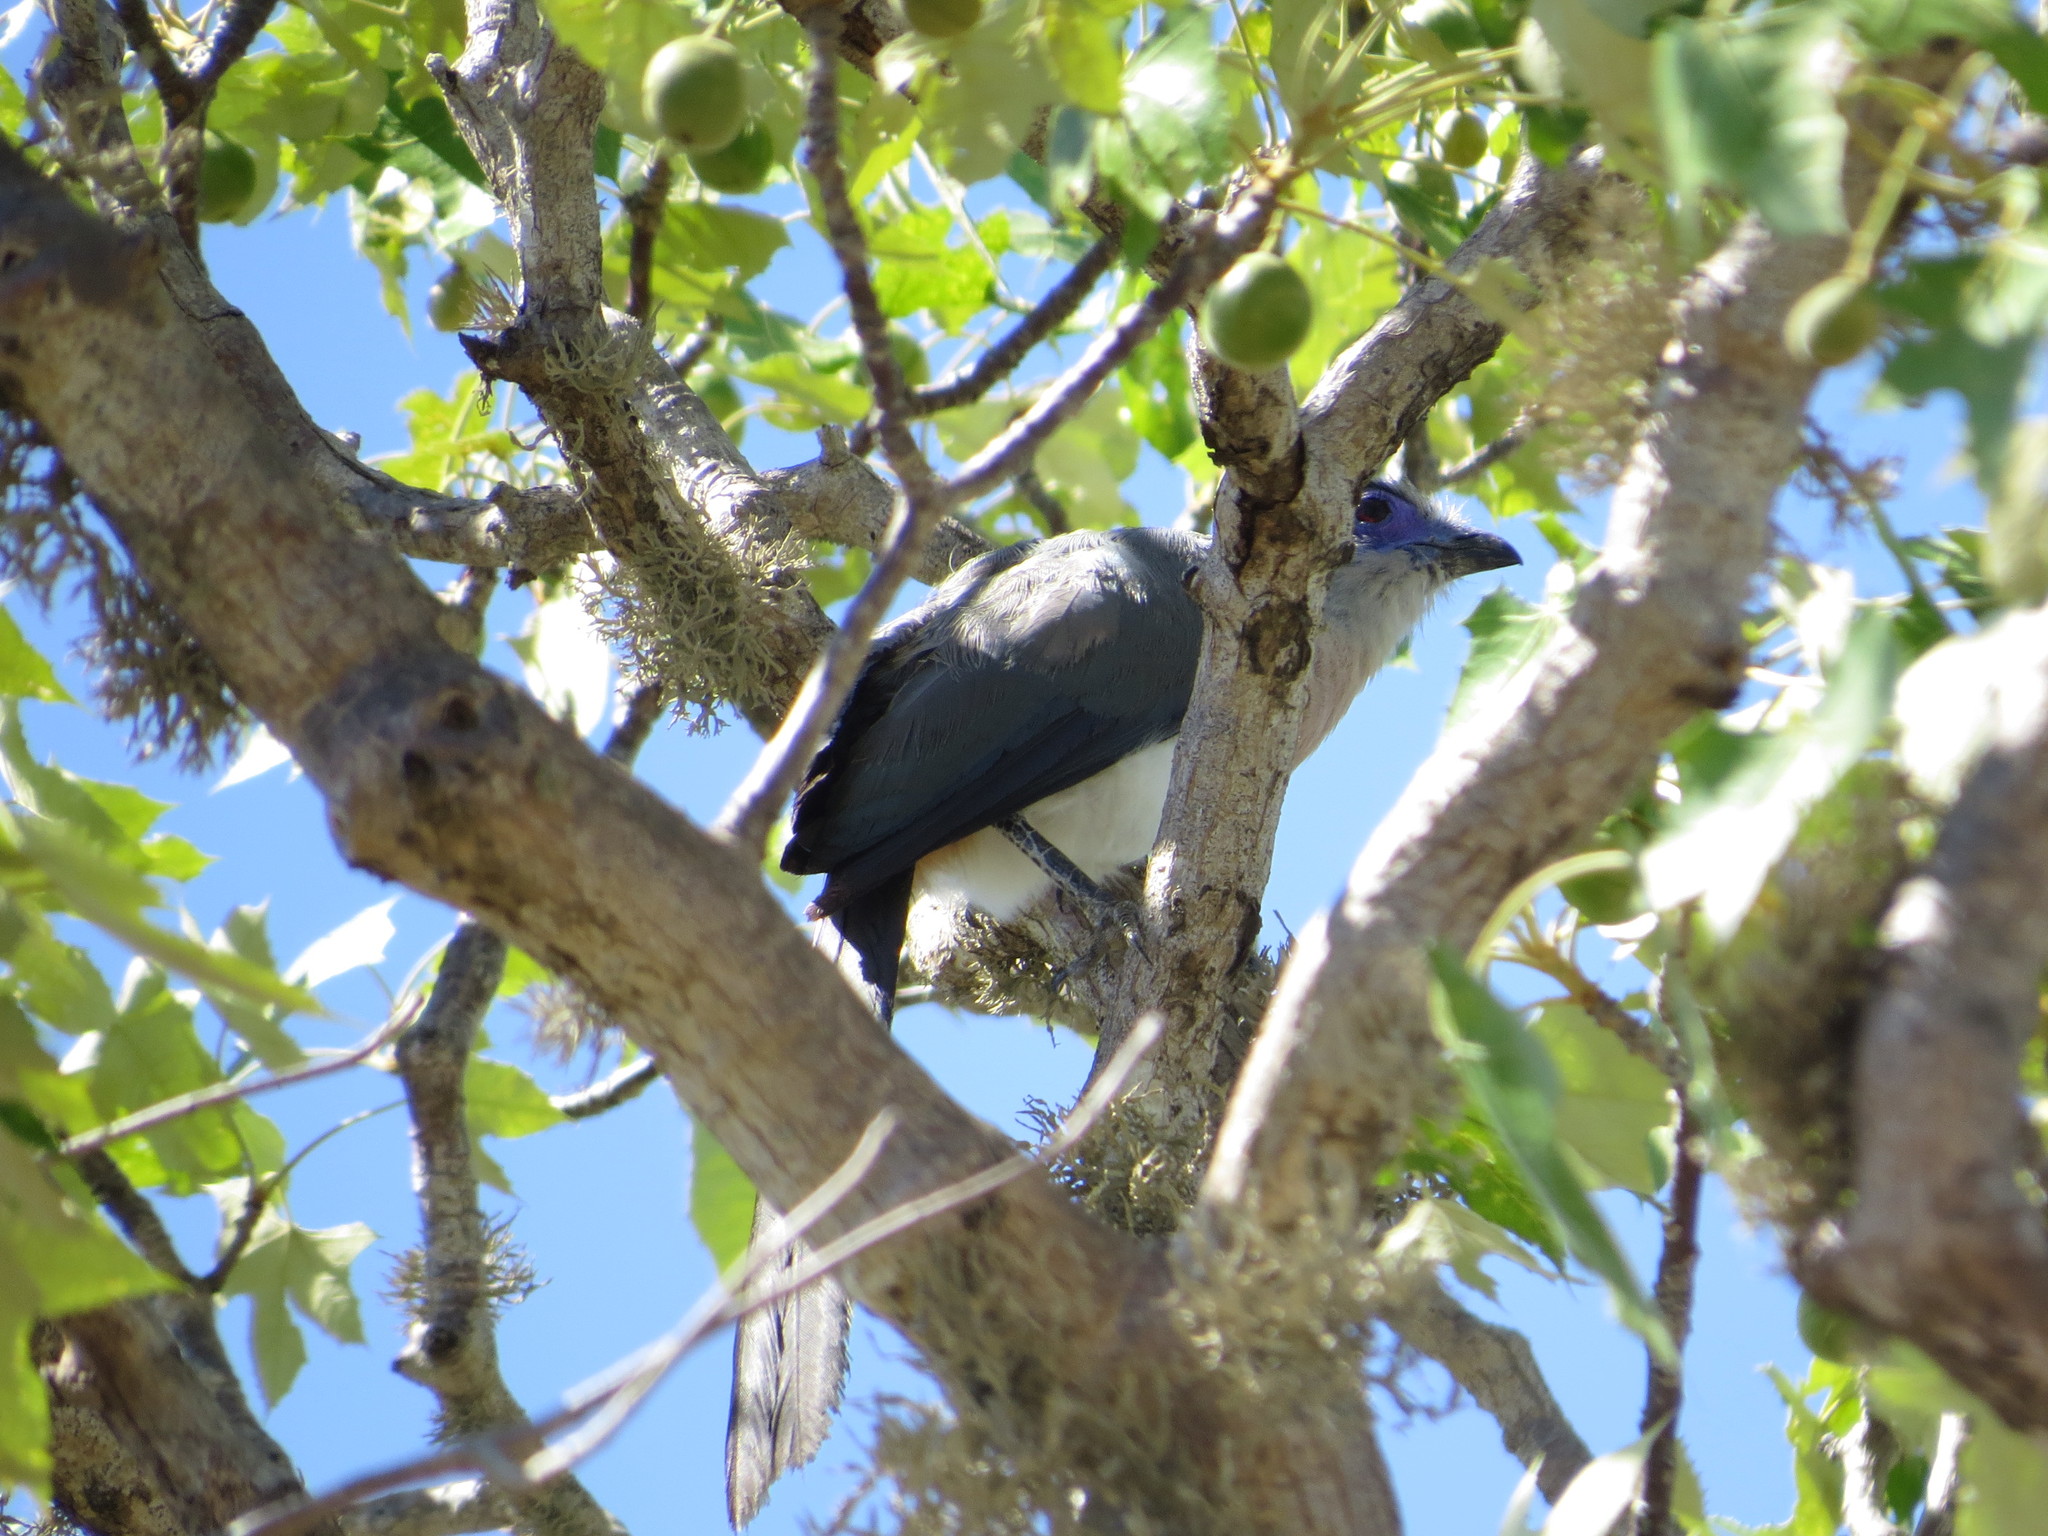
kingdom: Animalia
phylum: Chordata
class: Aves
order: Cuculiformes
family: Cuculidae
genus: Coua
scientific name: Coua verreauxi
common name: Verreaux's coua
